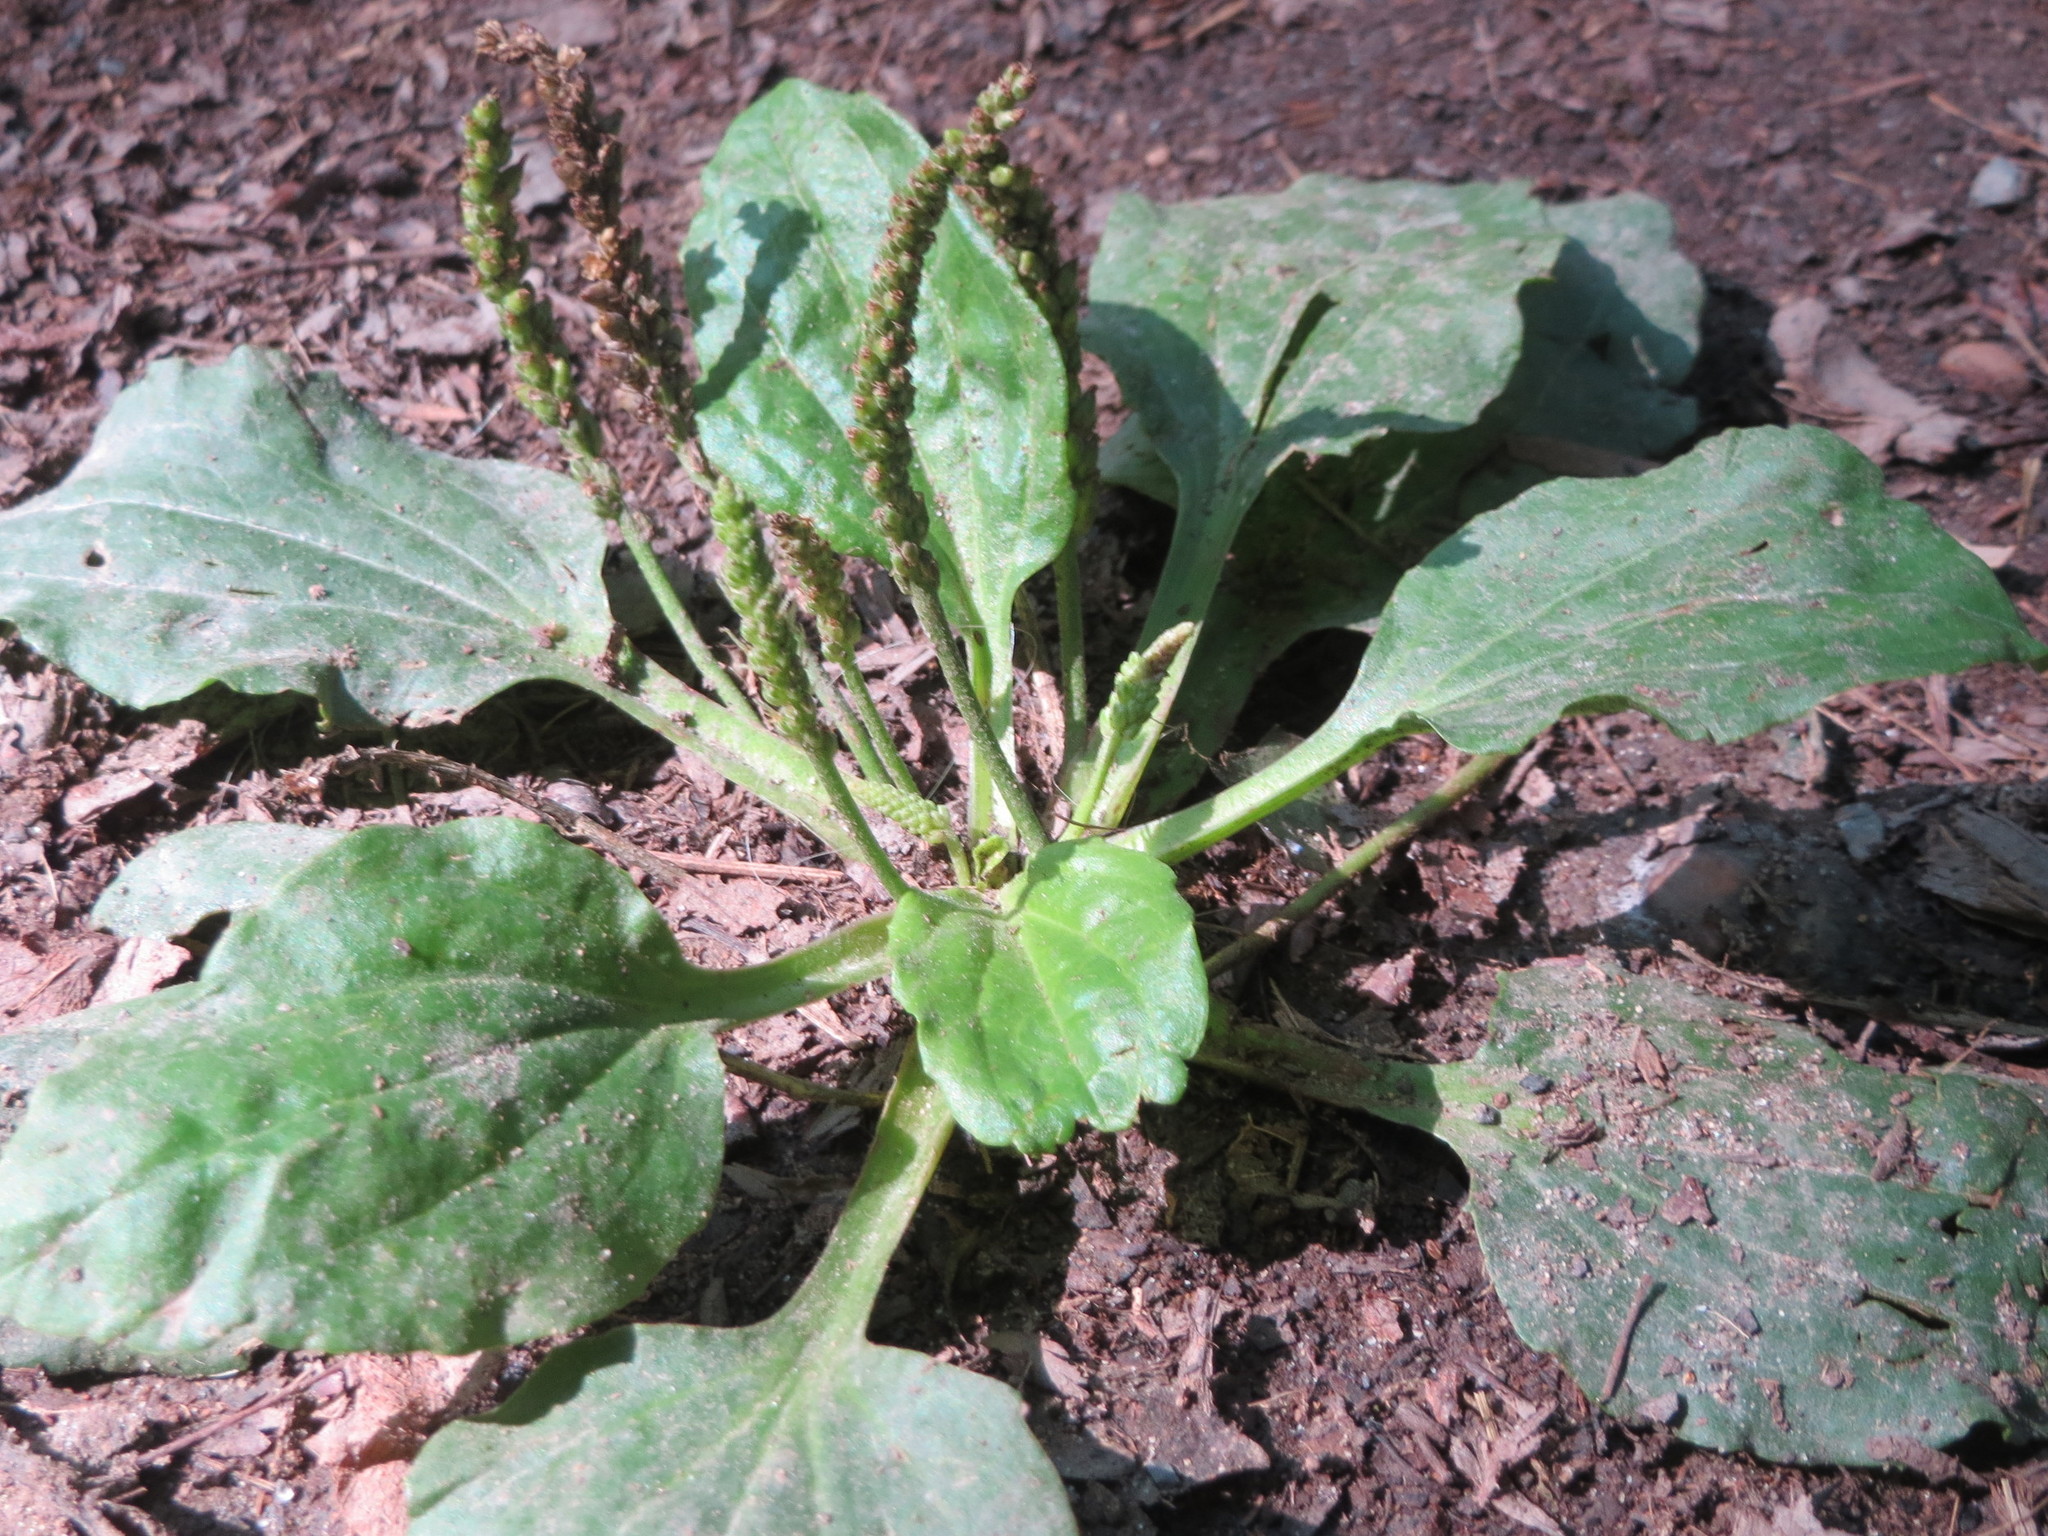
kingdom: Plantae
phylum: Tracheophyta
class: Magnoliopsida
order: Lamiales
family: Plantaginaceae
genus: Plantago
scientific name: Plantago major
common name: Common plantain
